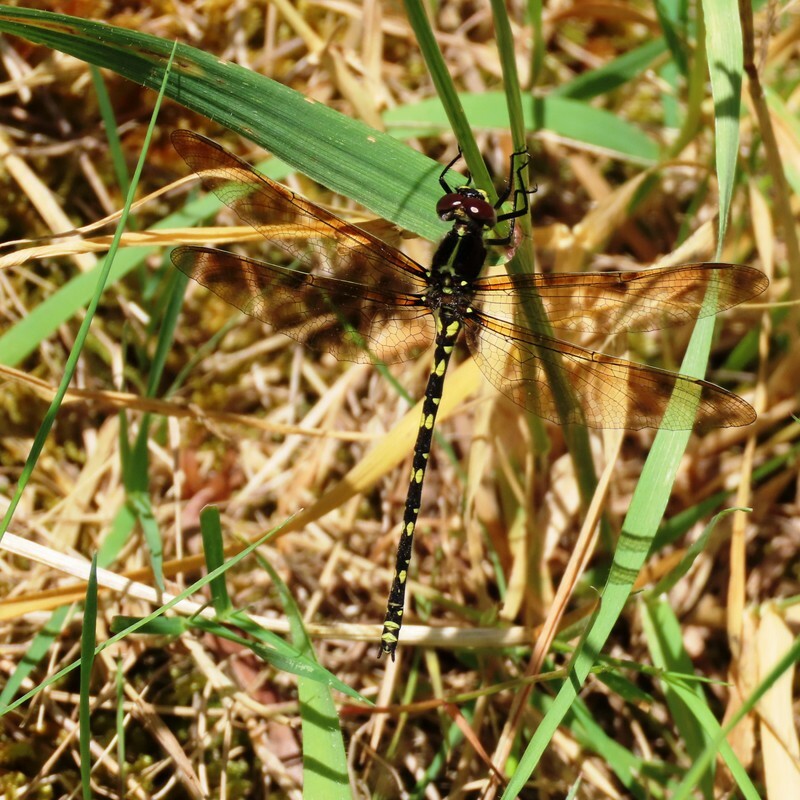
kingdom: Animalia
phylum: Arthropoda
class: Insecta
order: Odonata
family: Synthemistidae
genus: Synthemis
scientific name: Synthemis eustalacta
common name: Swamp tigertail
